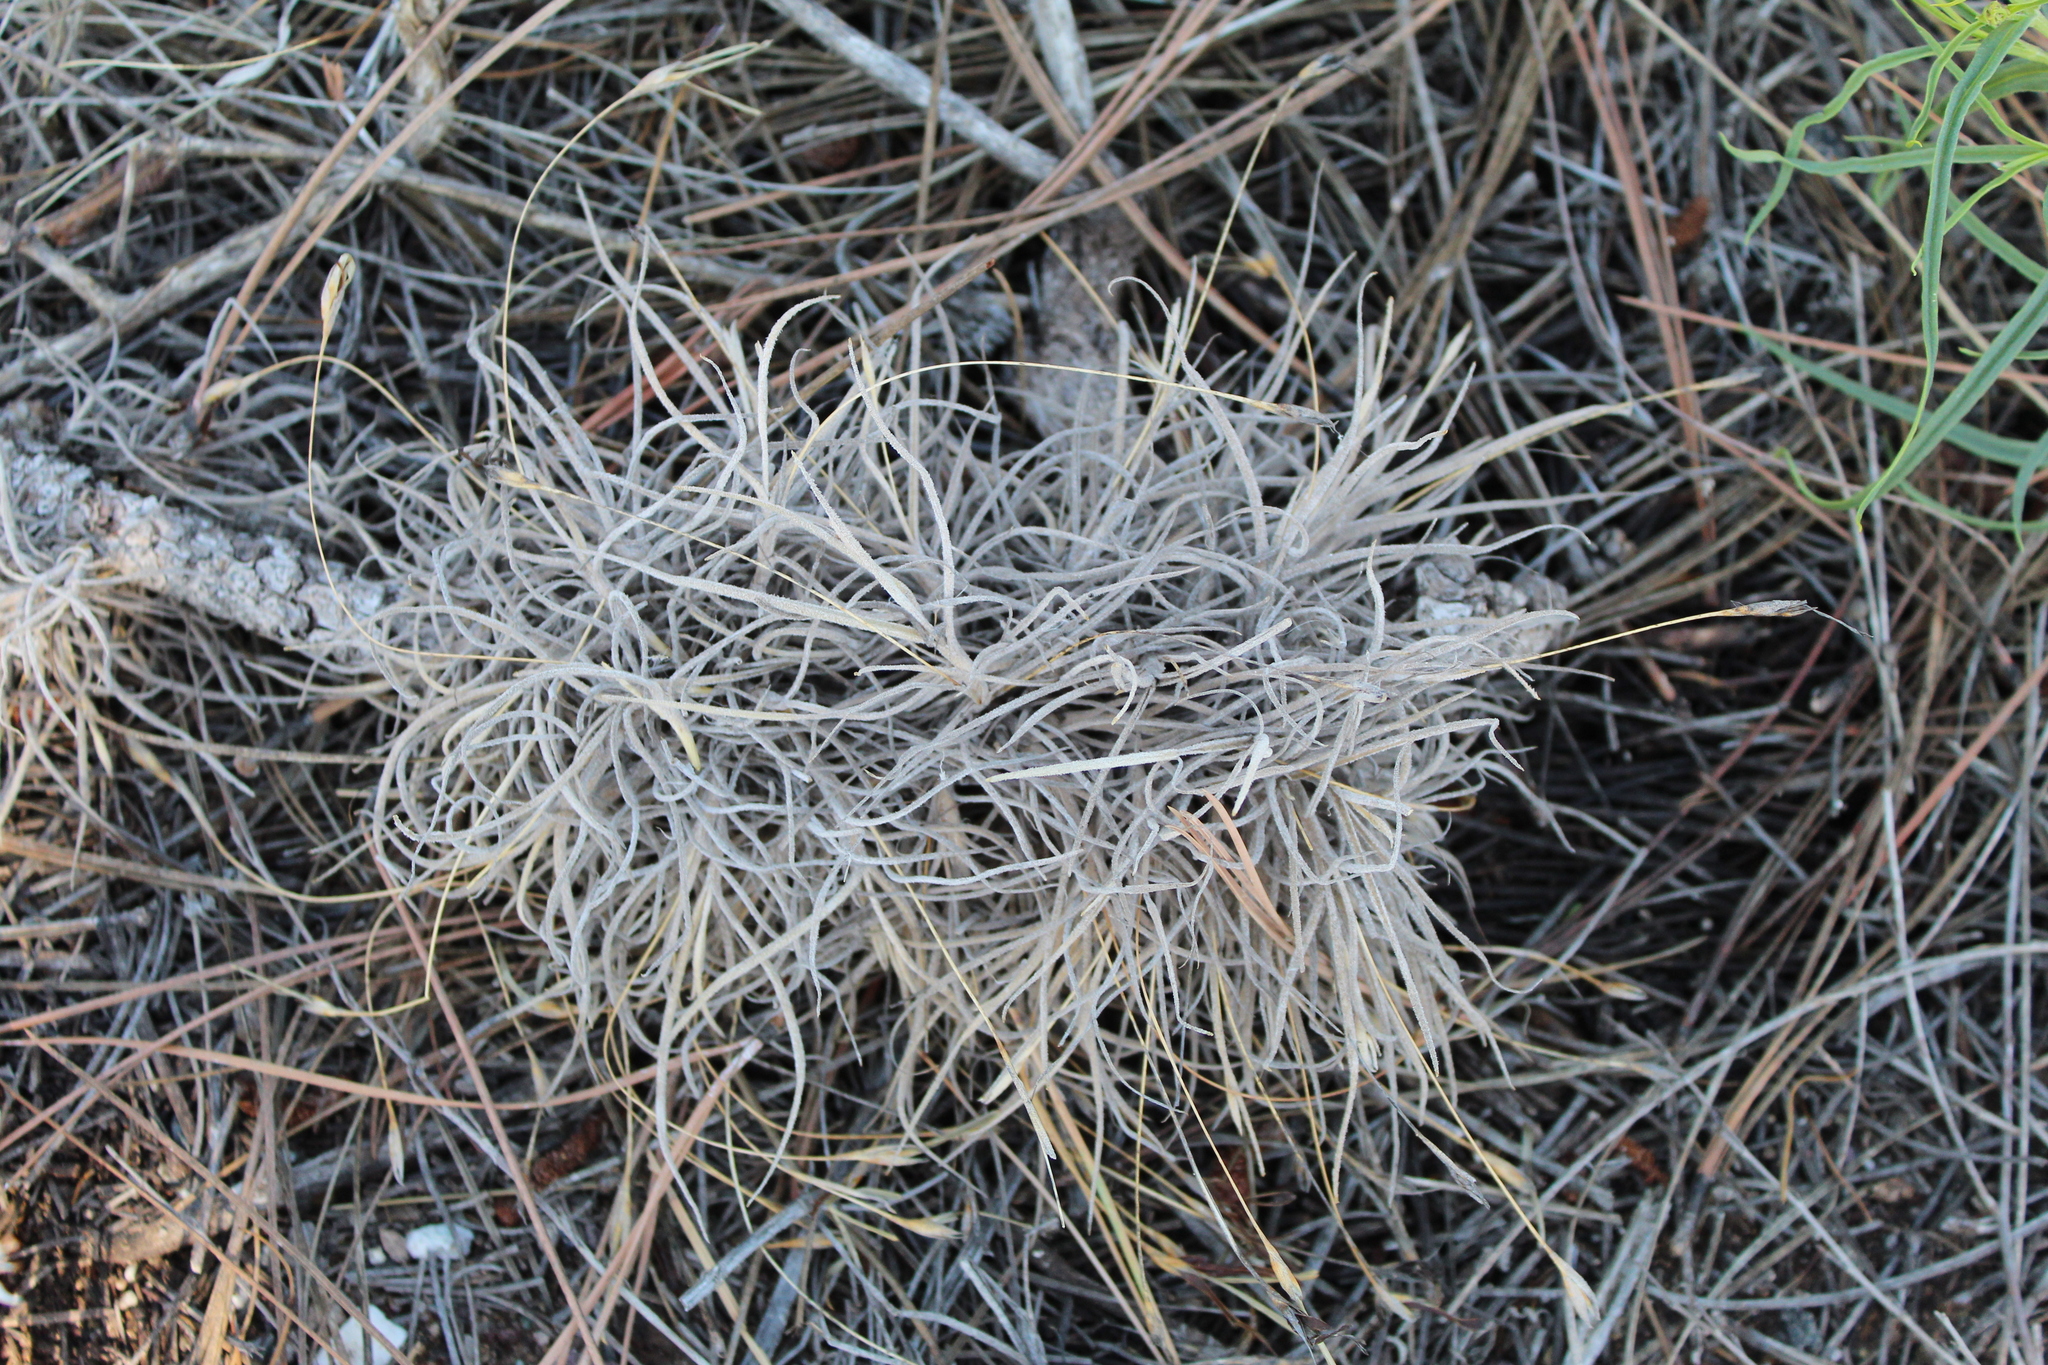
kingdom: Plantae
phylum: Tracheophyta
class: Liliopsida
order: Poales
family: Bromeliaceae
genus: Tillandsia
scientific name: Tillandsia recurvata
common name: Small ballmoss
